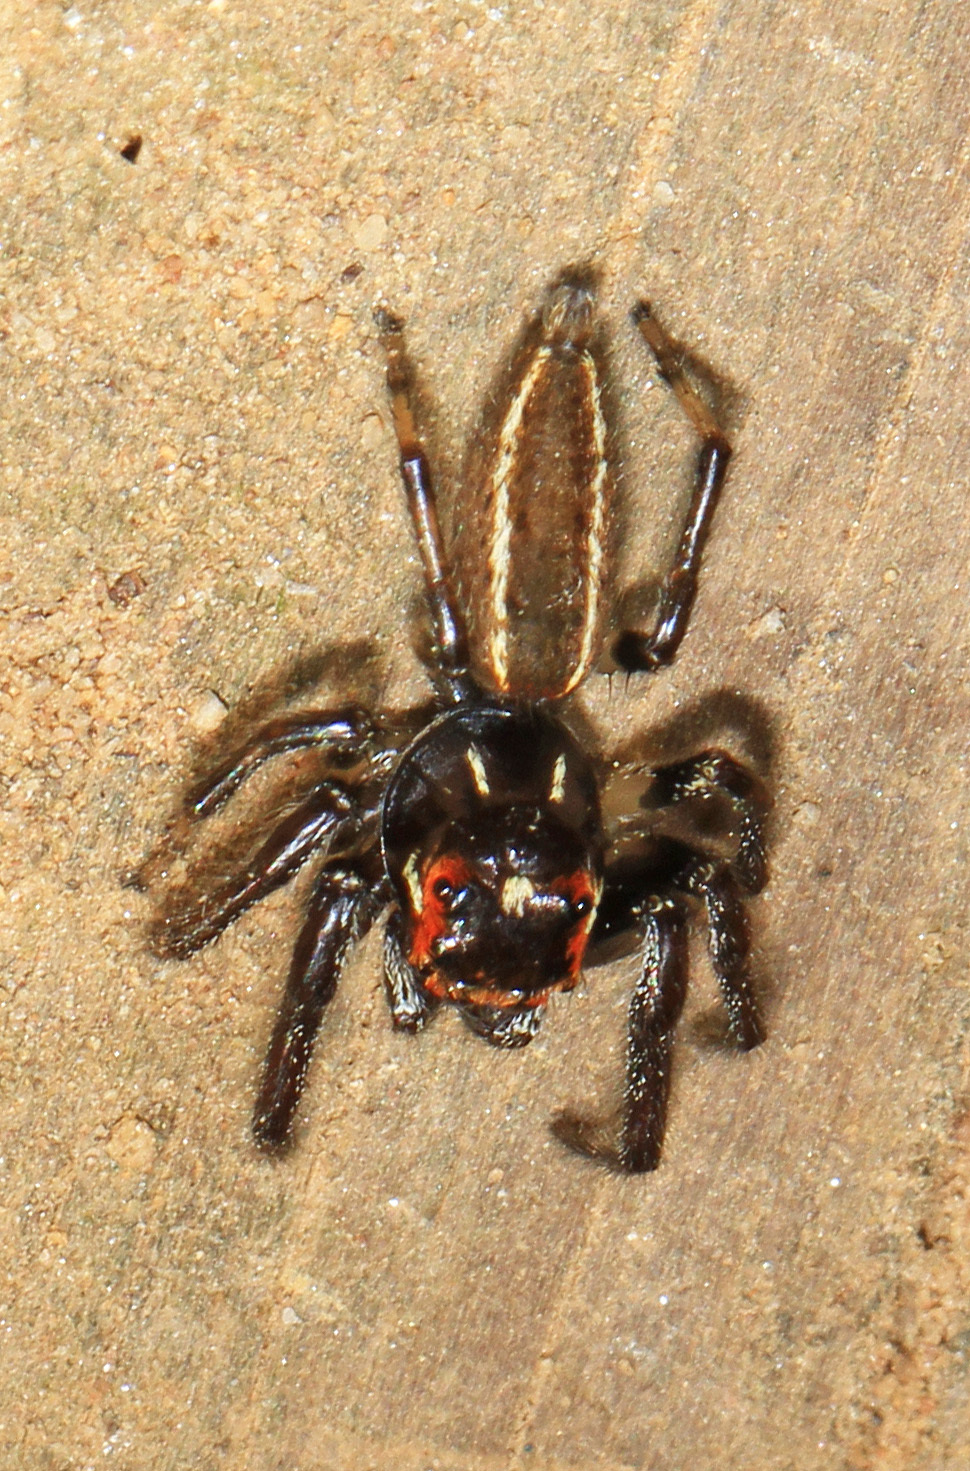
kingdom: Animalia
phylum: Arthropoda
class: Arachnida
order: Araneae
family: Salticidae
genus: Colonus
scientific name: Colonus sylvanus
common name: Jumping spiders
